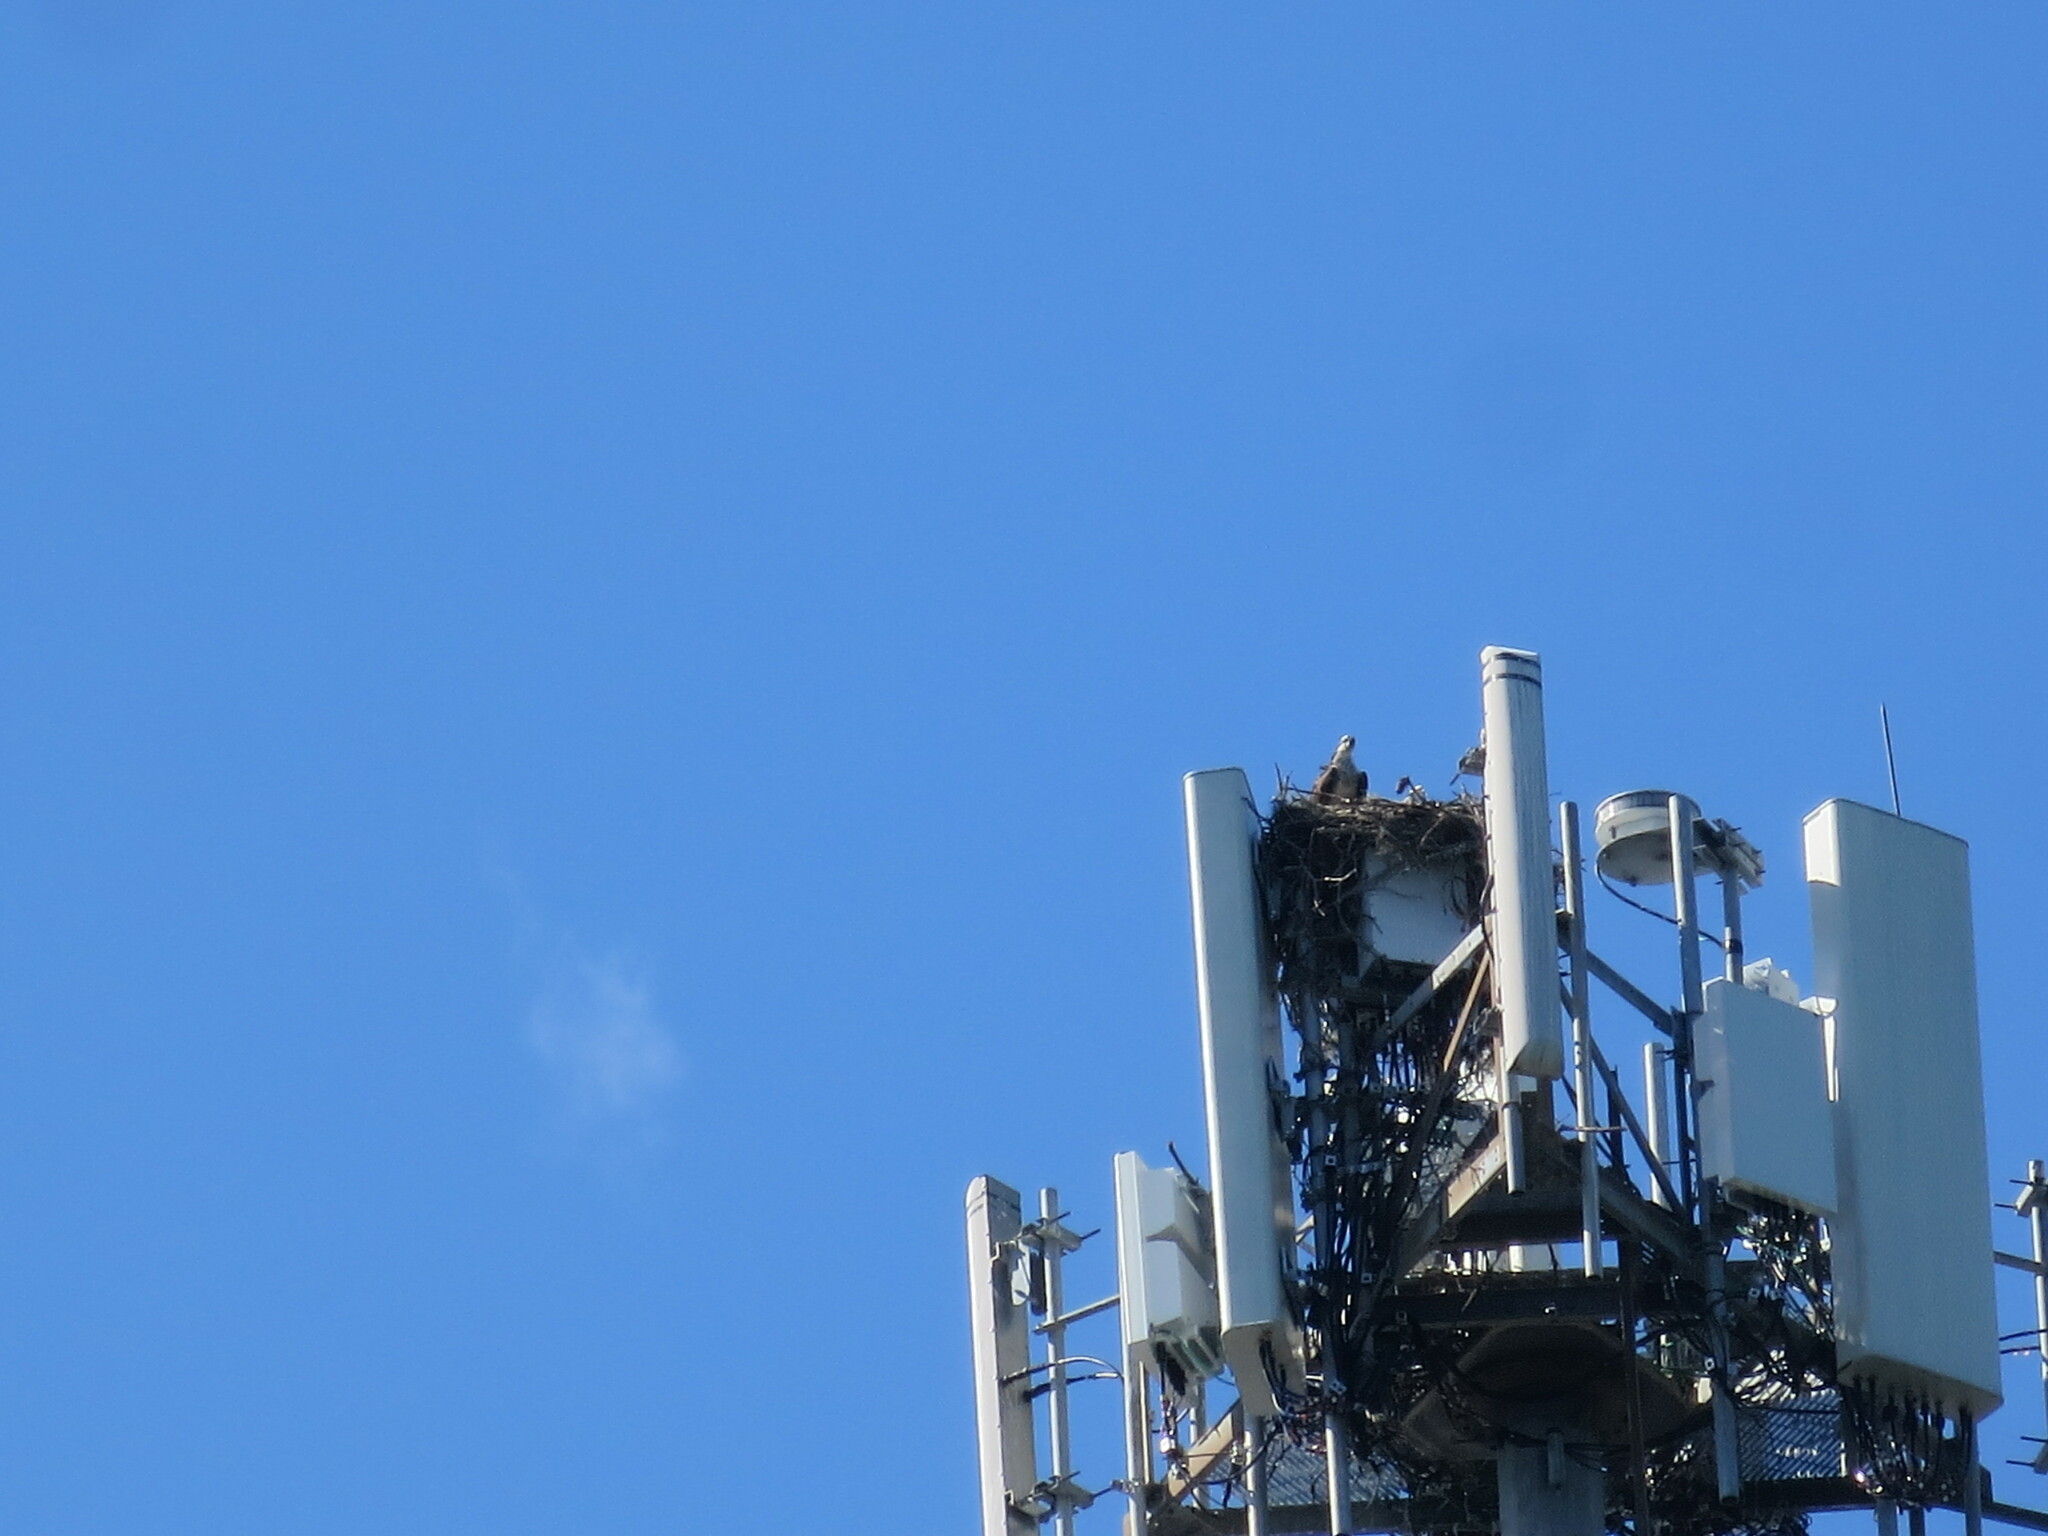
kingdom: Animalia
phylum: Chordata
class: Aves
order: Accipitriformes
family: Pandionidae
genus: Pandion
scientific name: Pandion haliaetus
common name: Osprey
